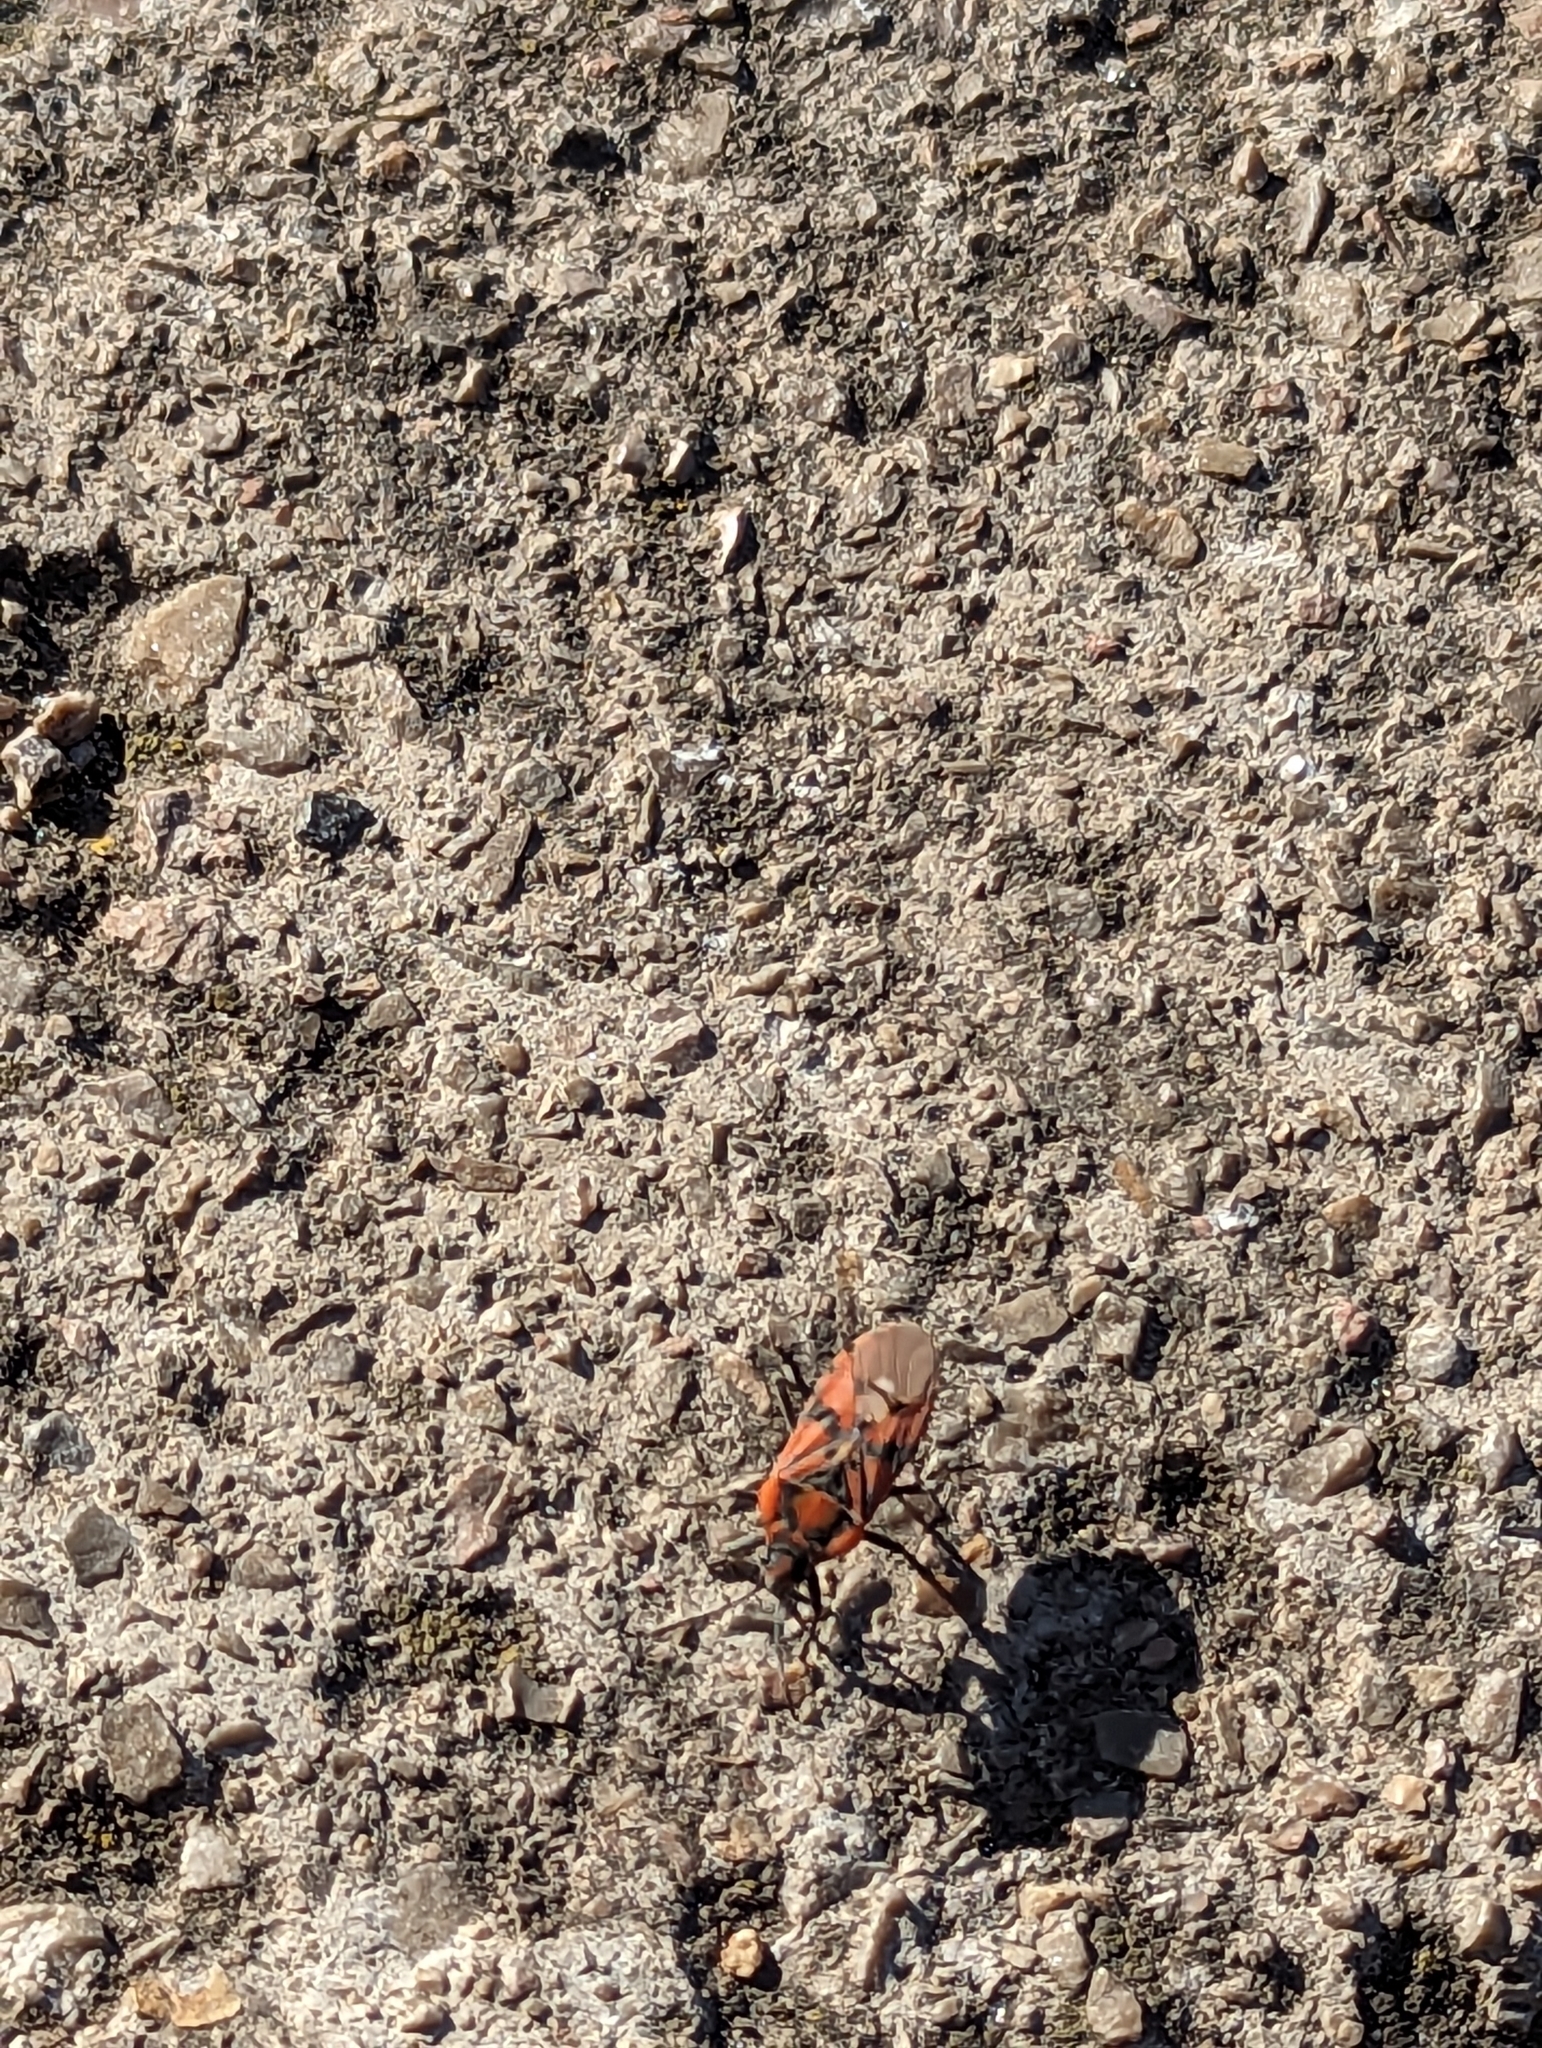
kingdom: Animalia
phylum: Arthropoda
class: Insecta
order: Hemiptera
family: Lygaeidae
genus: Spilostethus
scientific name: Spilostethus pandurus
